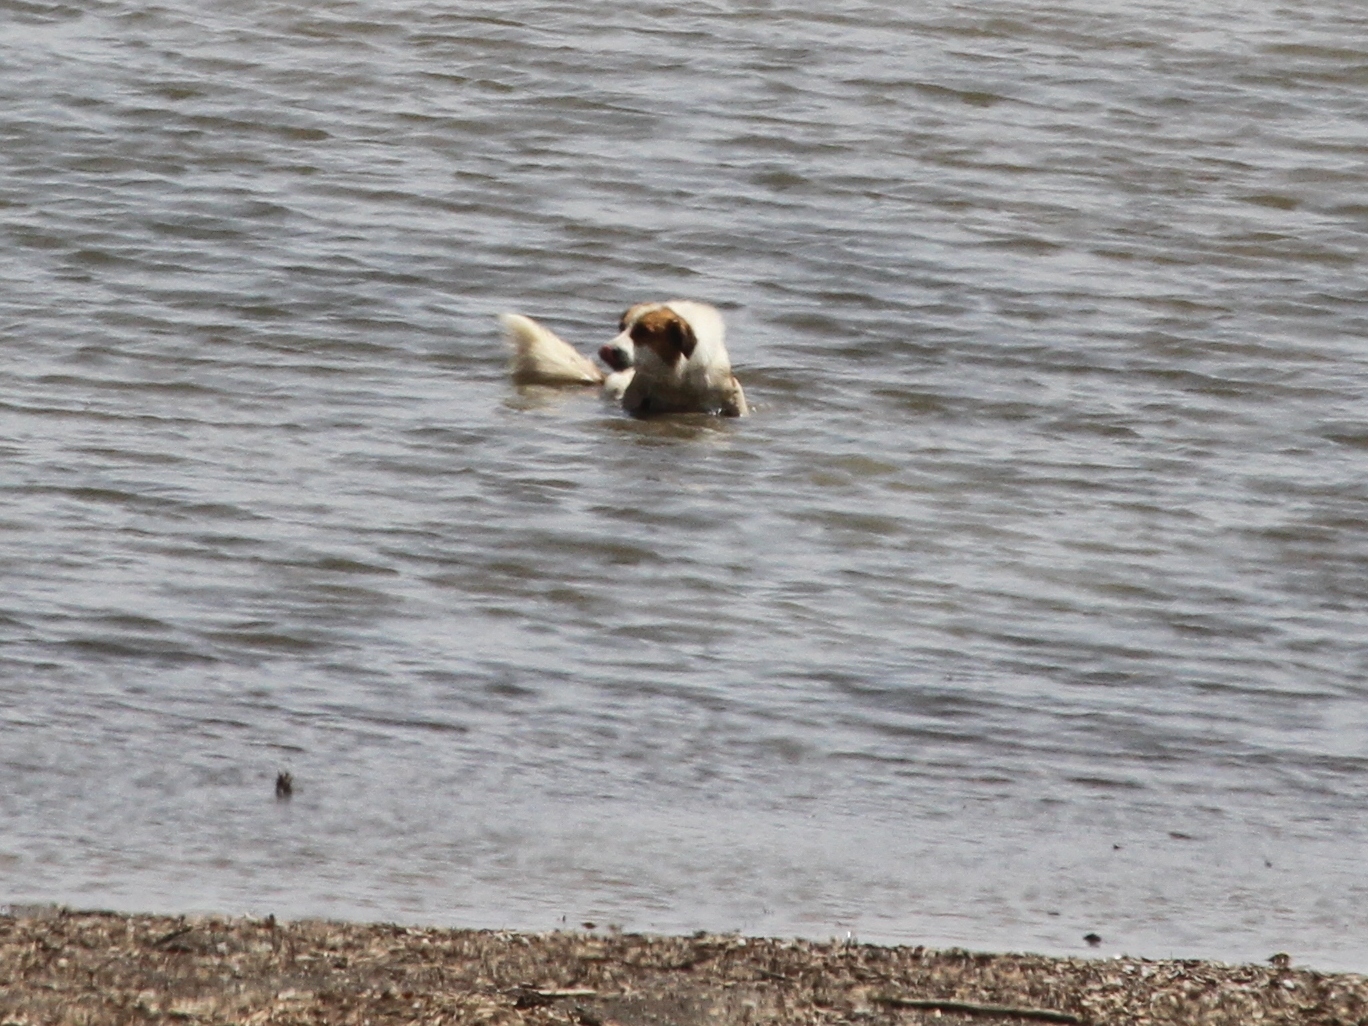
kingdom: Animalia
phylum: Chordata
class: Mammalia
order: Carnivora
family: Canidae
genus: Canis
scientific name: Canis lupus
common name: Gray wolf
